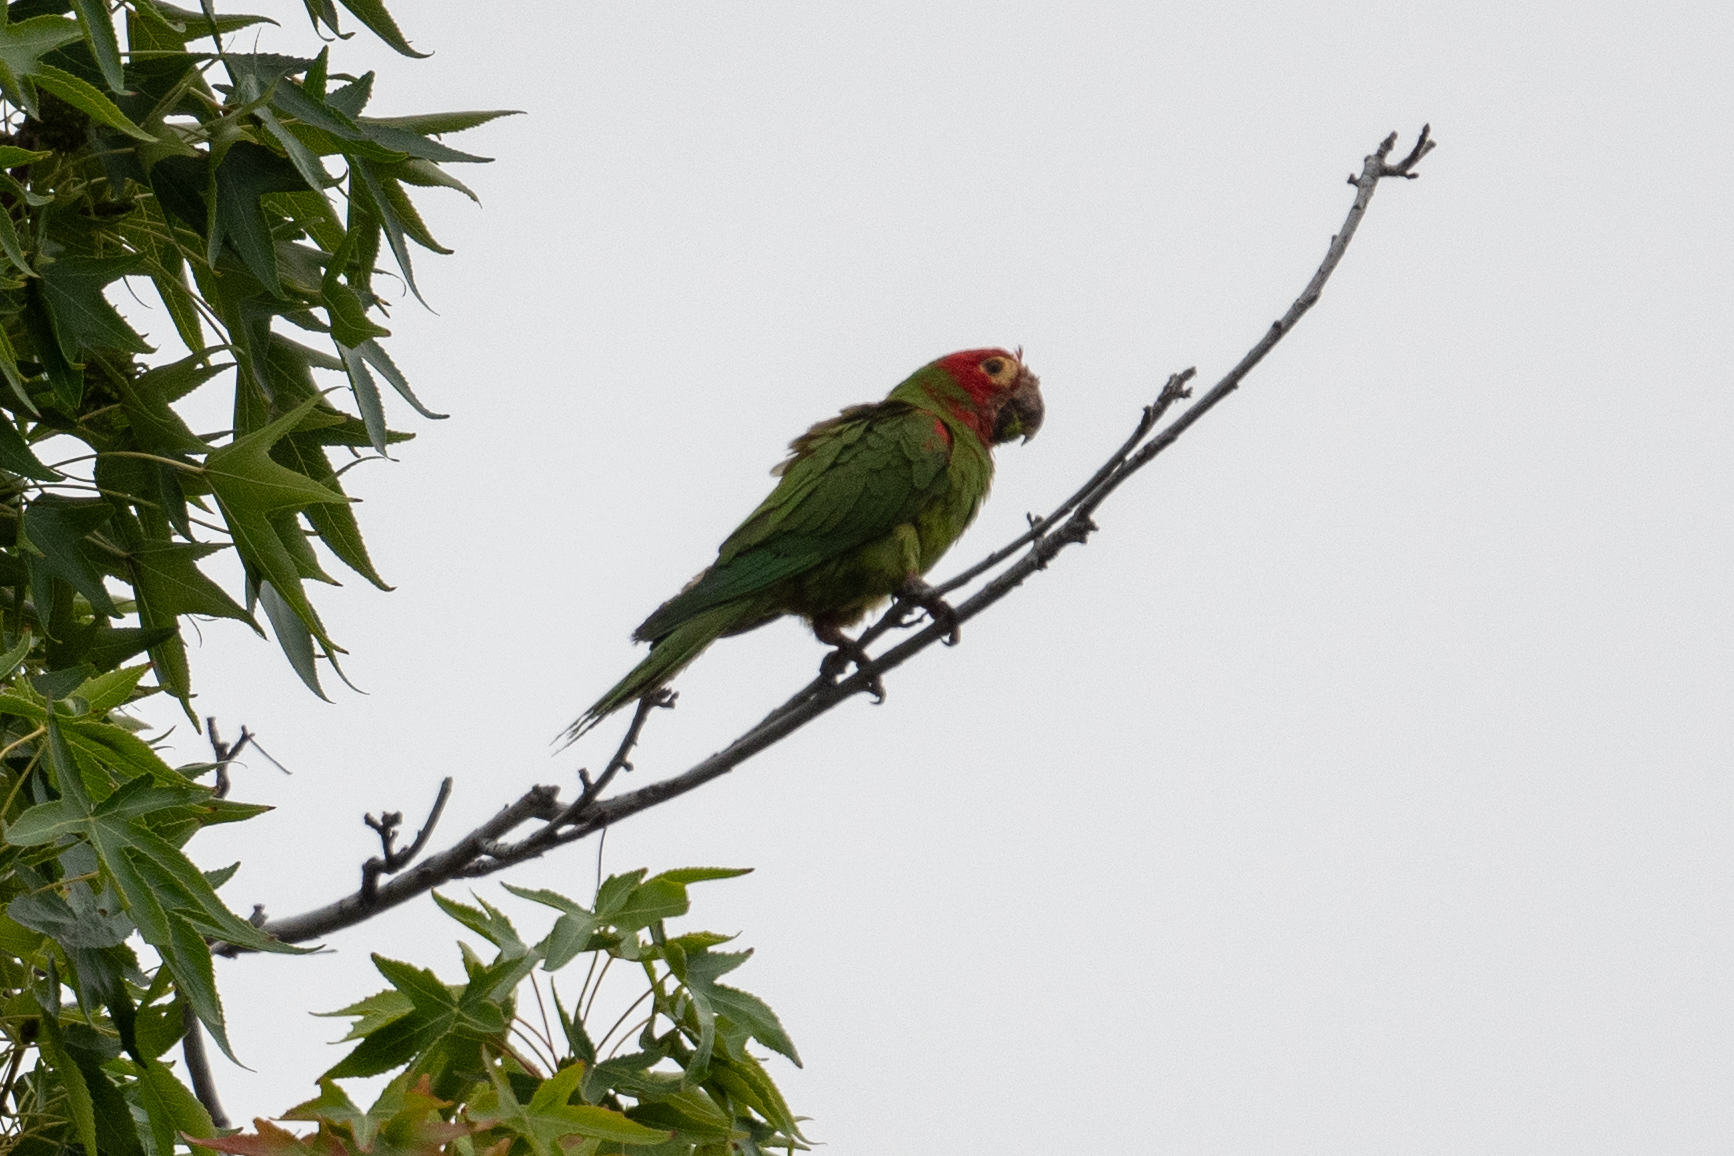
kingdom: Animalia
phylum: Chordata
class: Aves
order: Psittaciformes
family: Psittacidae
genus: Aratinga
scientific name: Aratinga erythrogenys
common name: Red-masked parakeet
